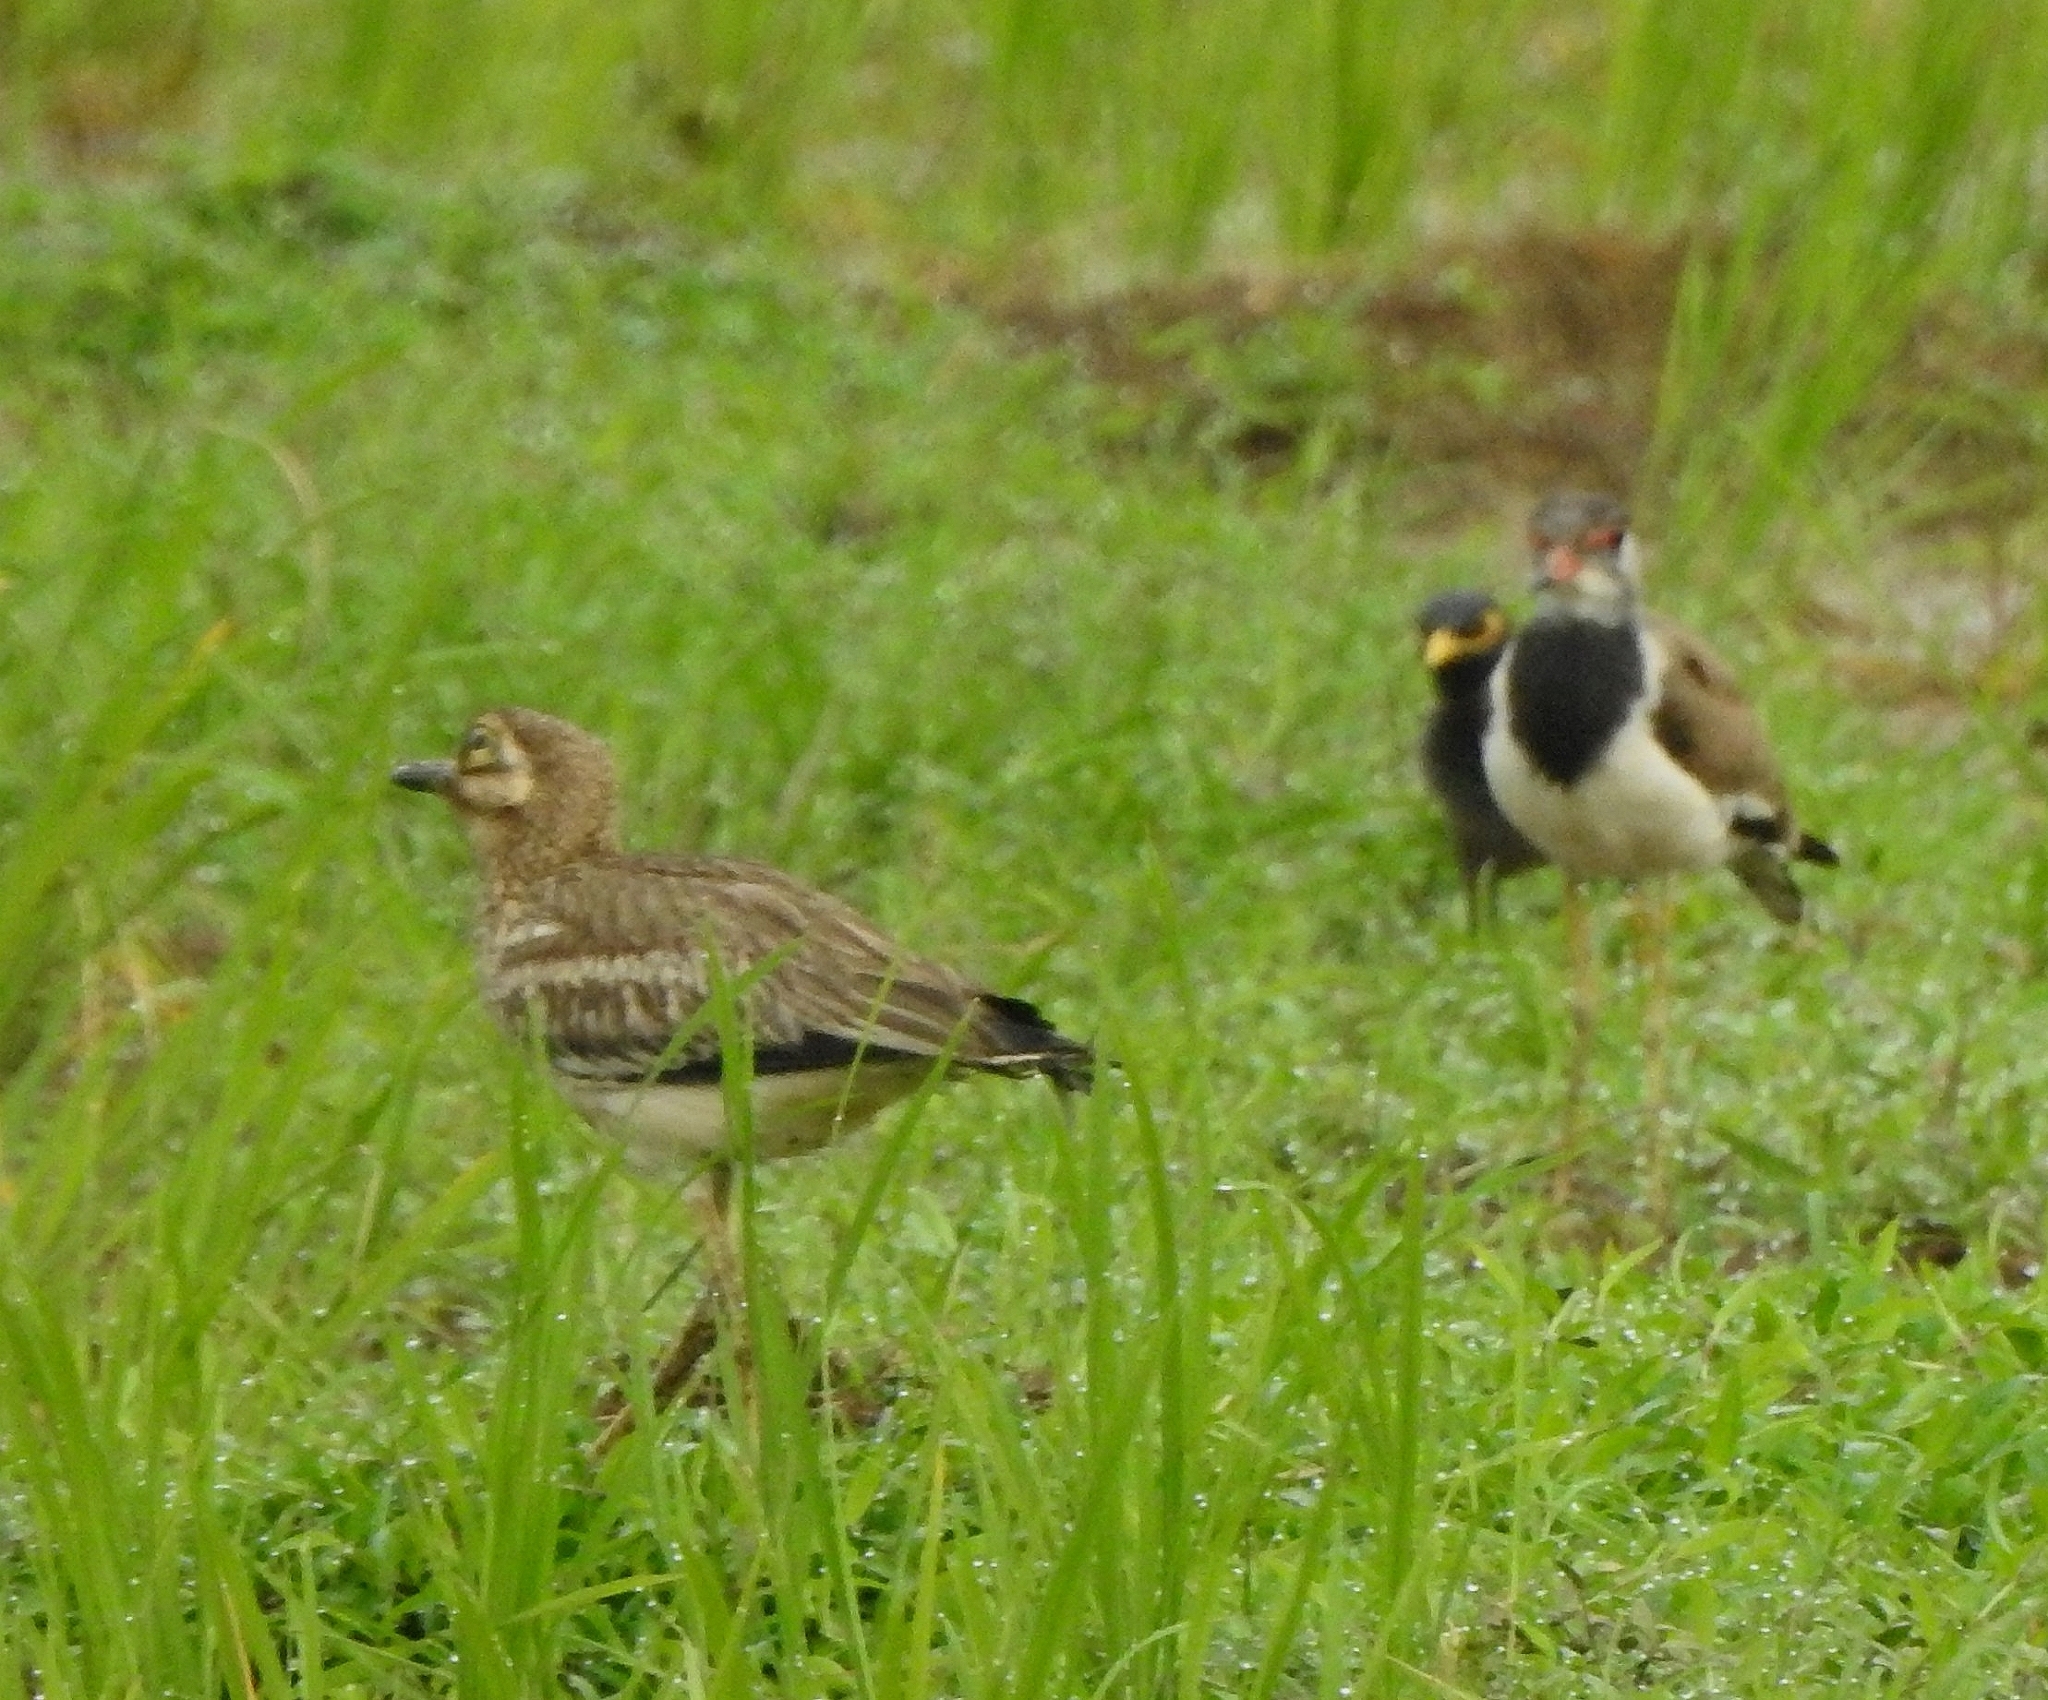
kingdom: Animalia
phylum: Chordata
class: Aves
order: Passeriformes
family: Sturnidae
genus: Acridotheres
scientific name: Acridotheres tristis
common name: Common myna
